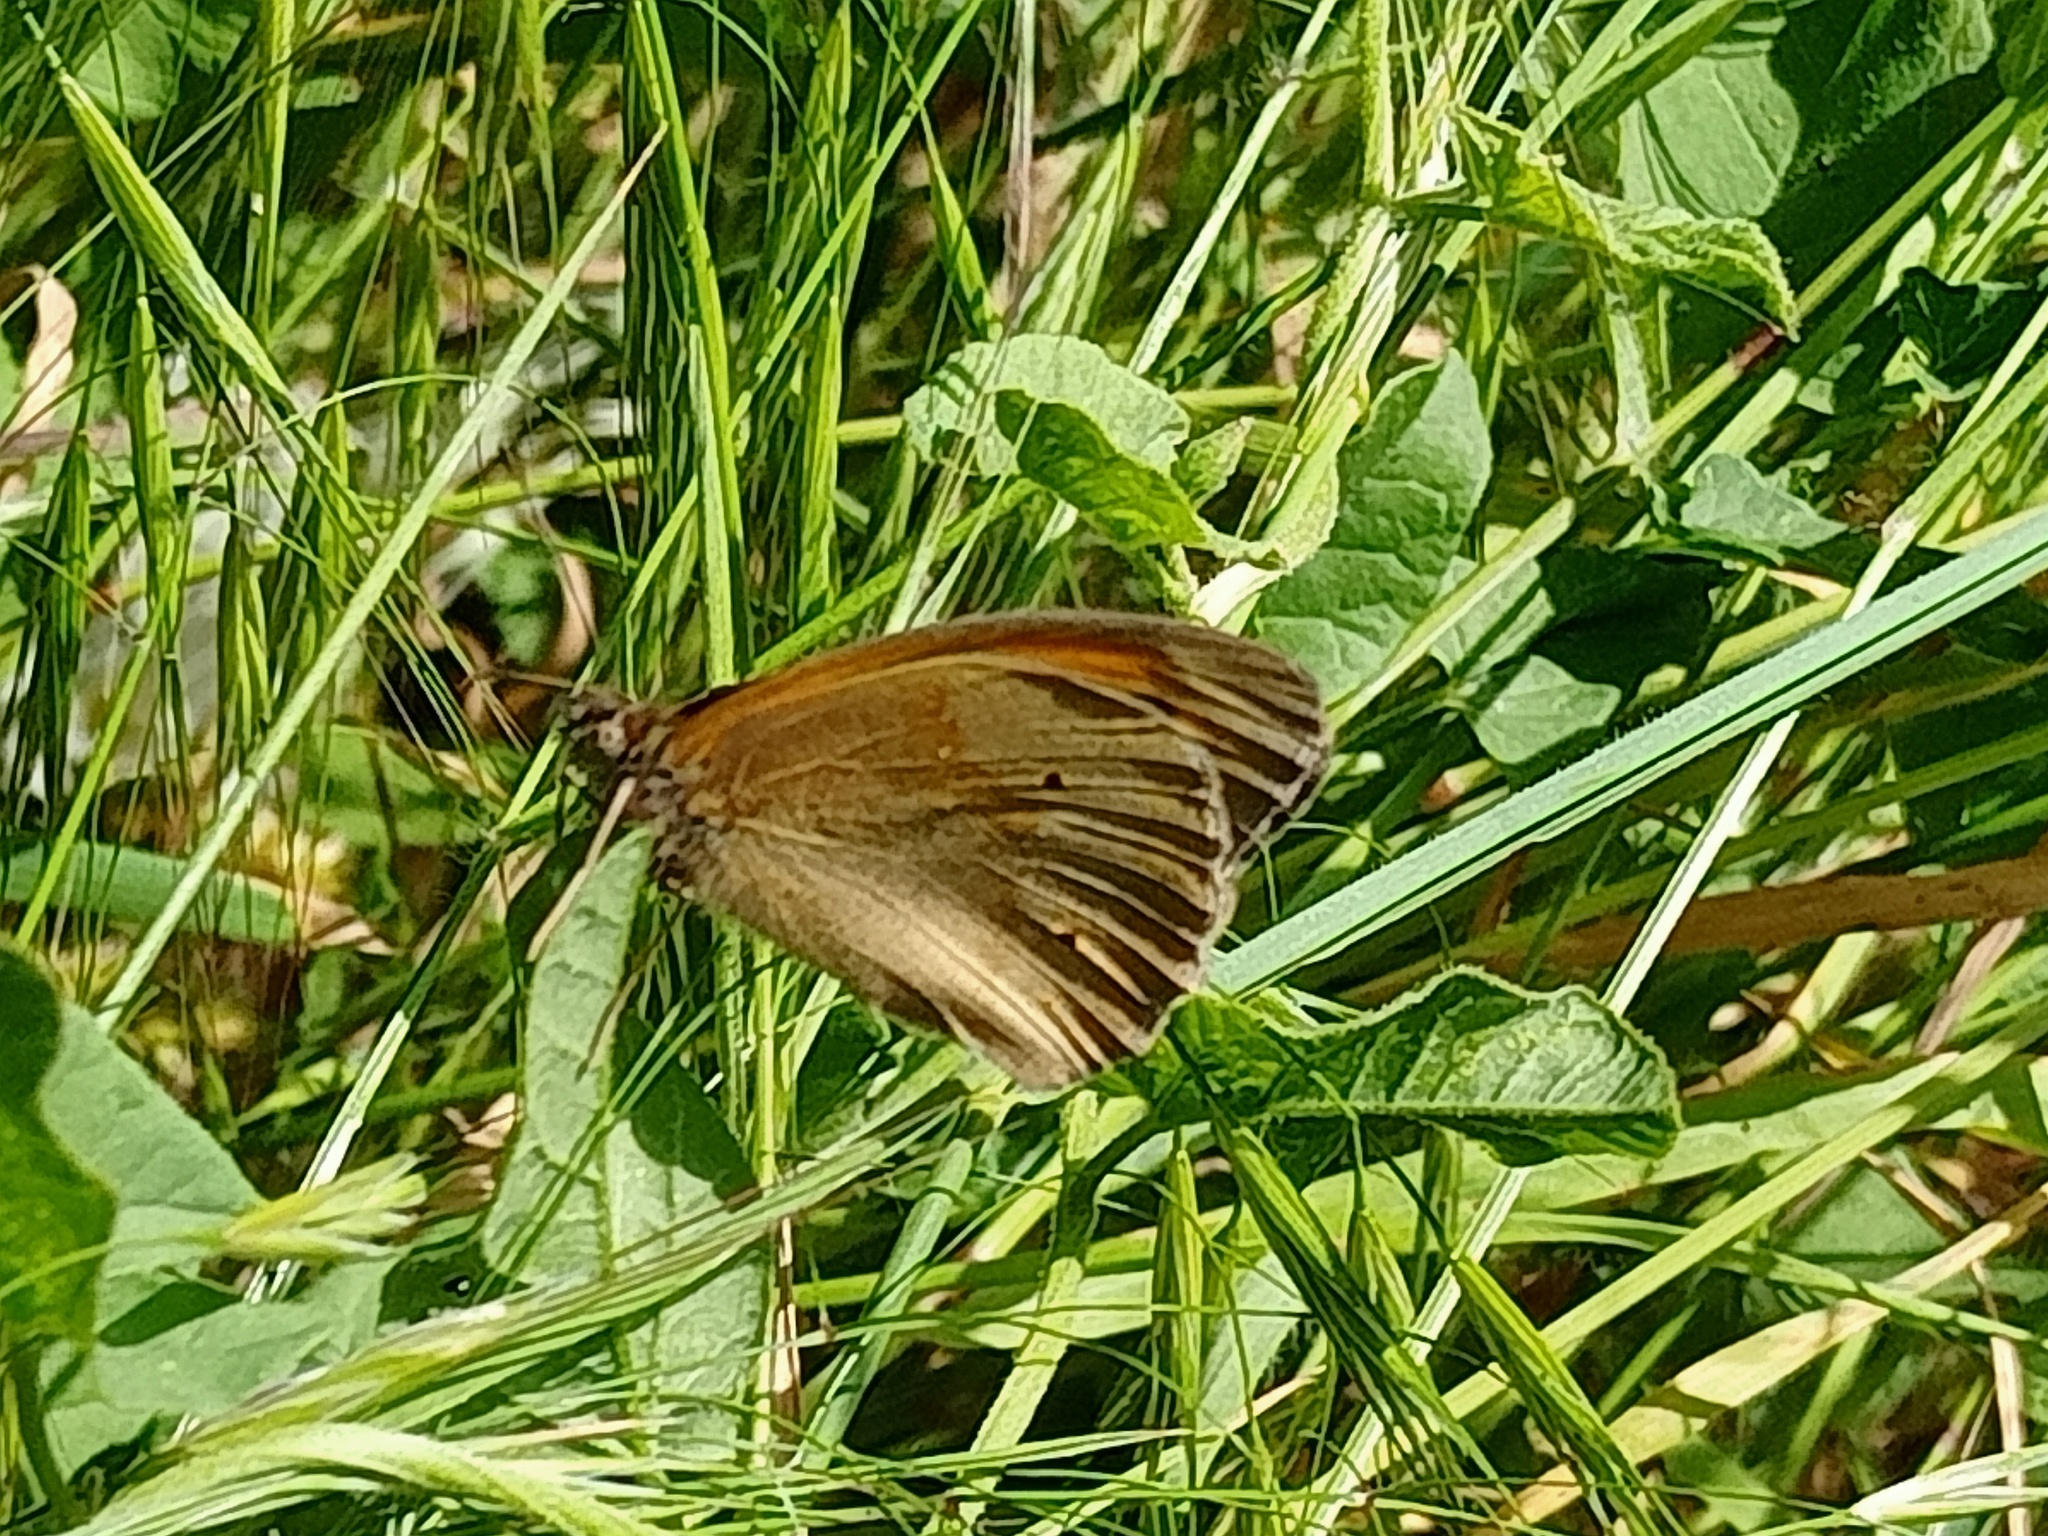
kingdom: Animalia
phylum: Arthropoda
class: Insecta
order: Lepidoptera
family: Nymphalidae
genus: Maniola
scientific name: Maniola jurtina
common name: Meadow brown
